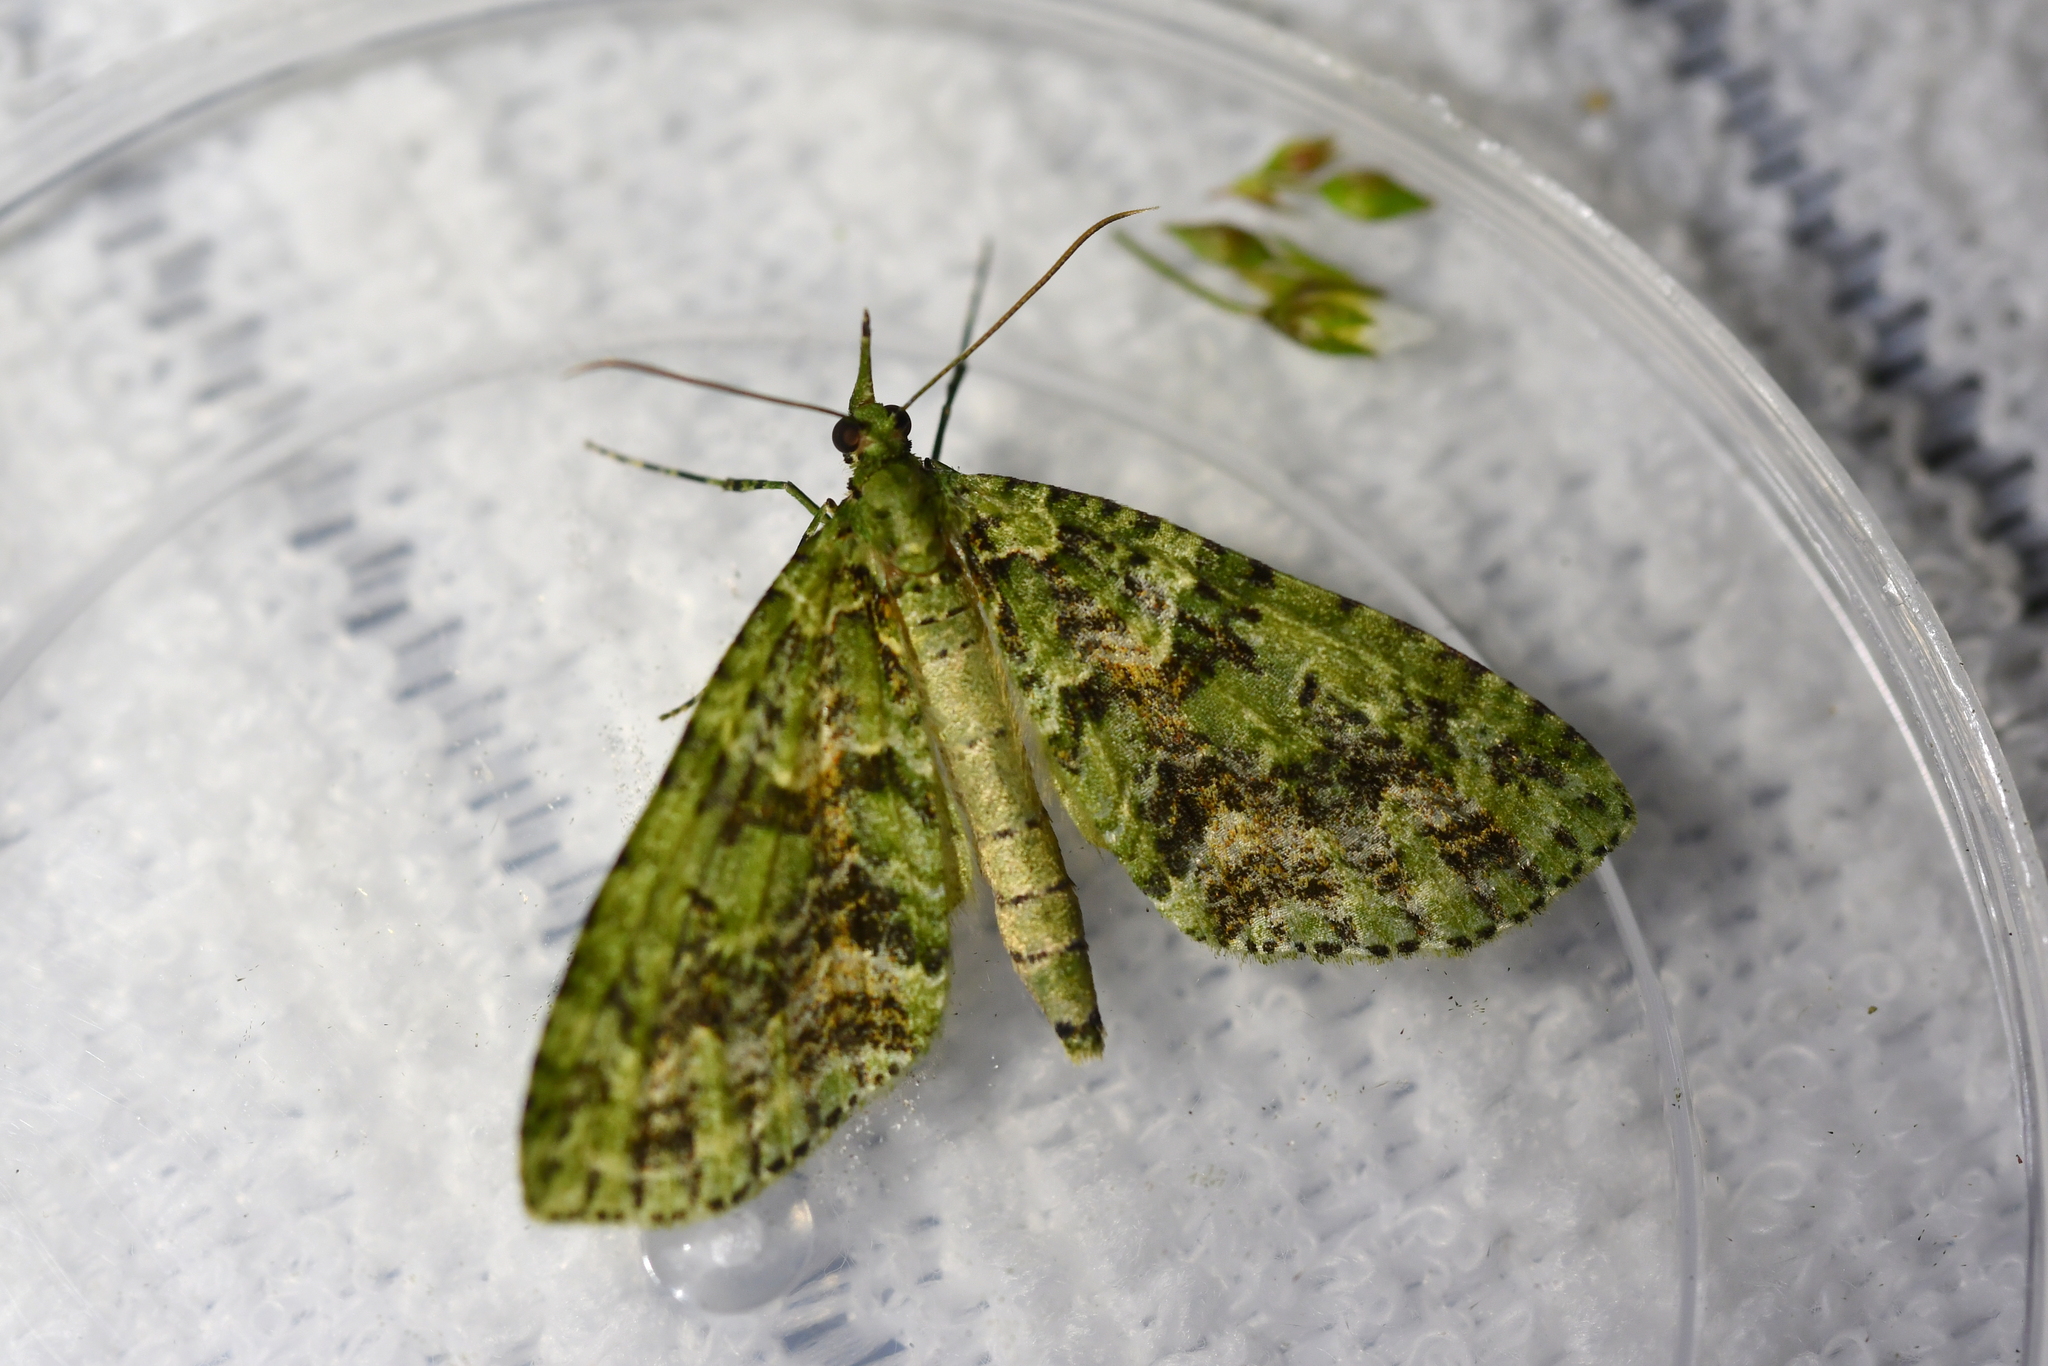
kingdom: Animalia
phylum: Arthropoda
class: Insecta
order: Lepidoptera
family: Geometridae
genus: Tatosoma
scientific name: Tatosoma tipulata
